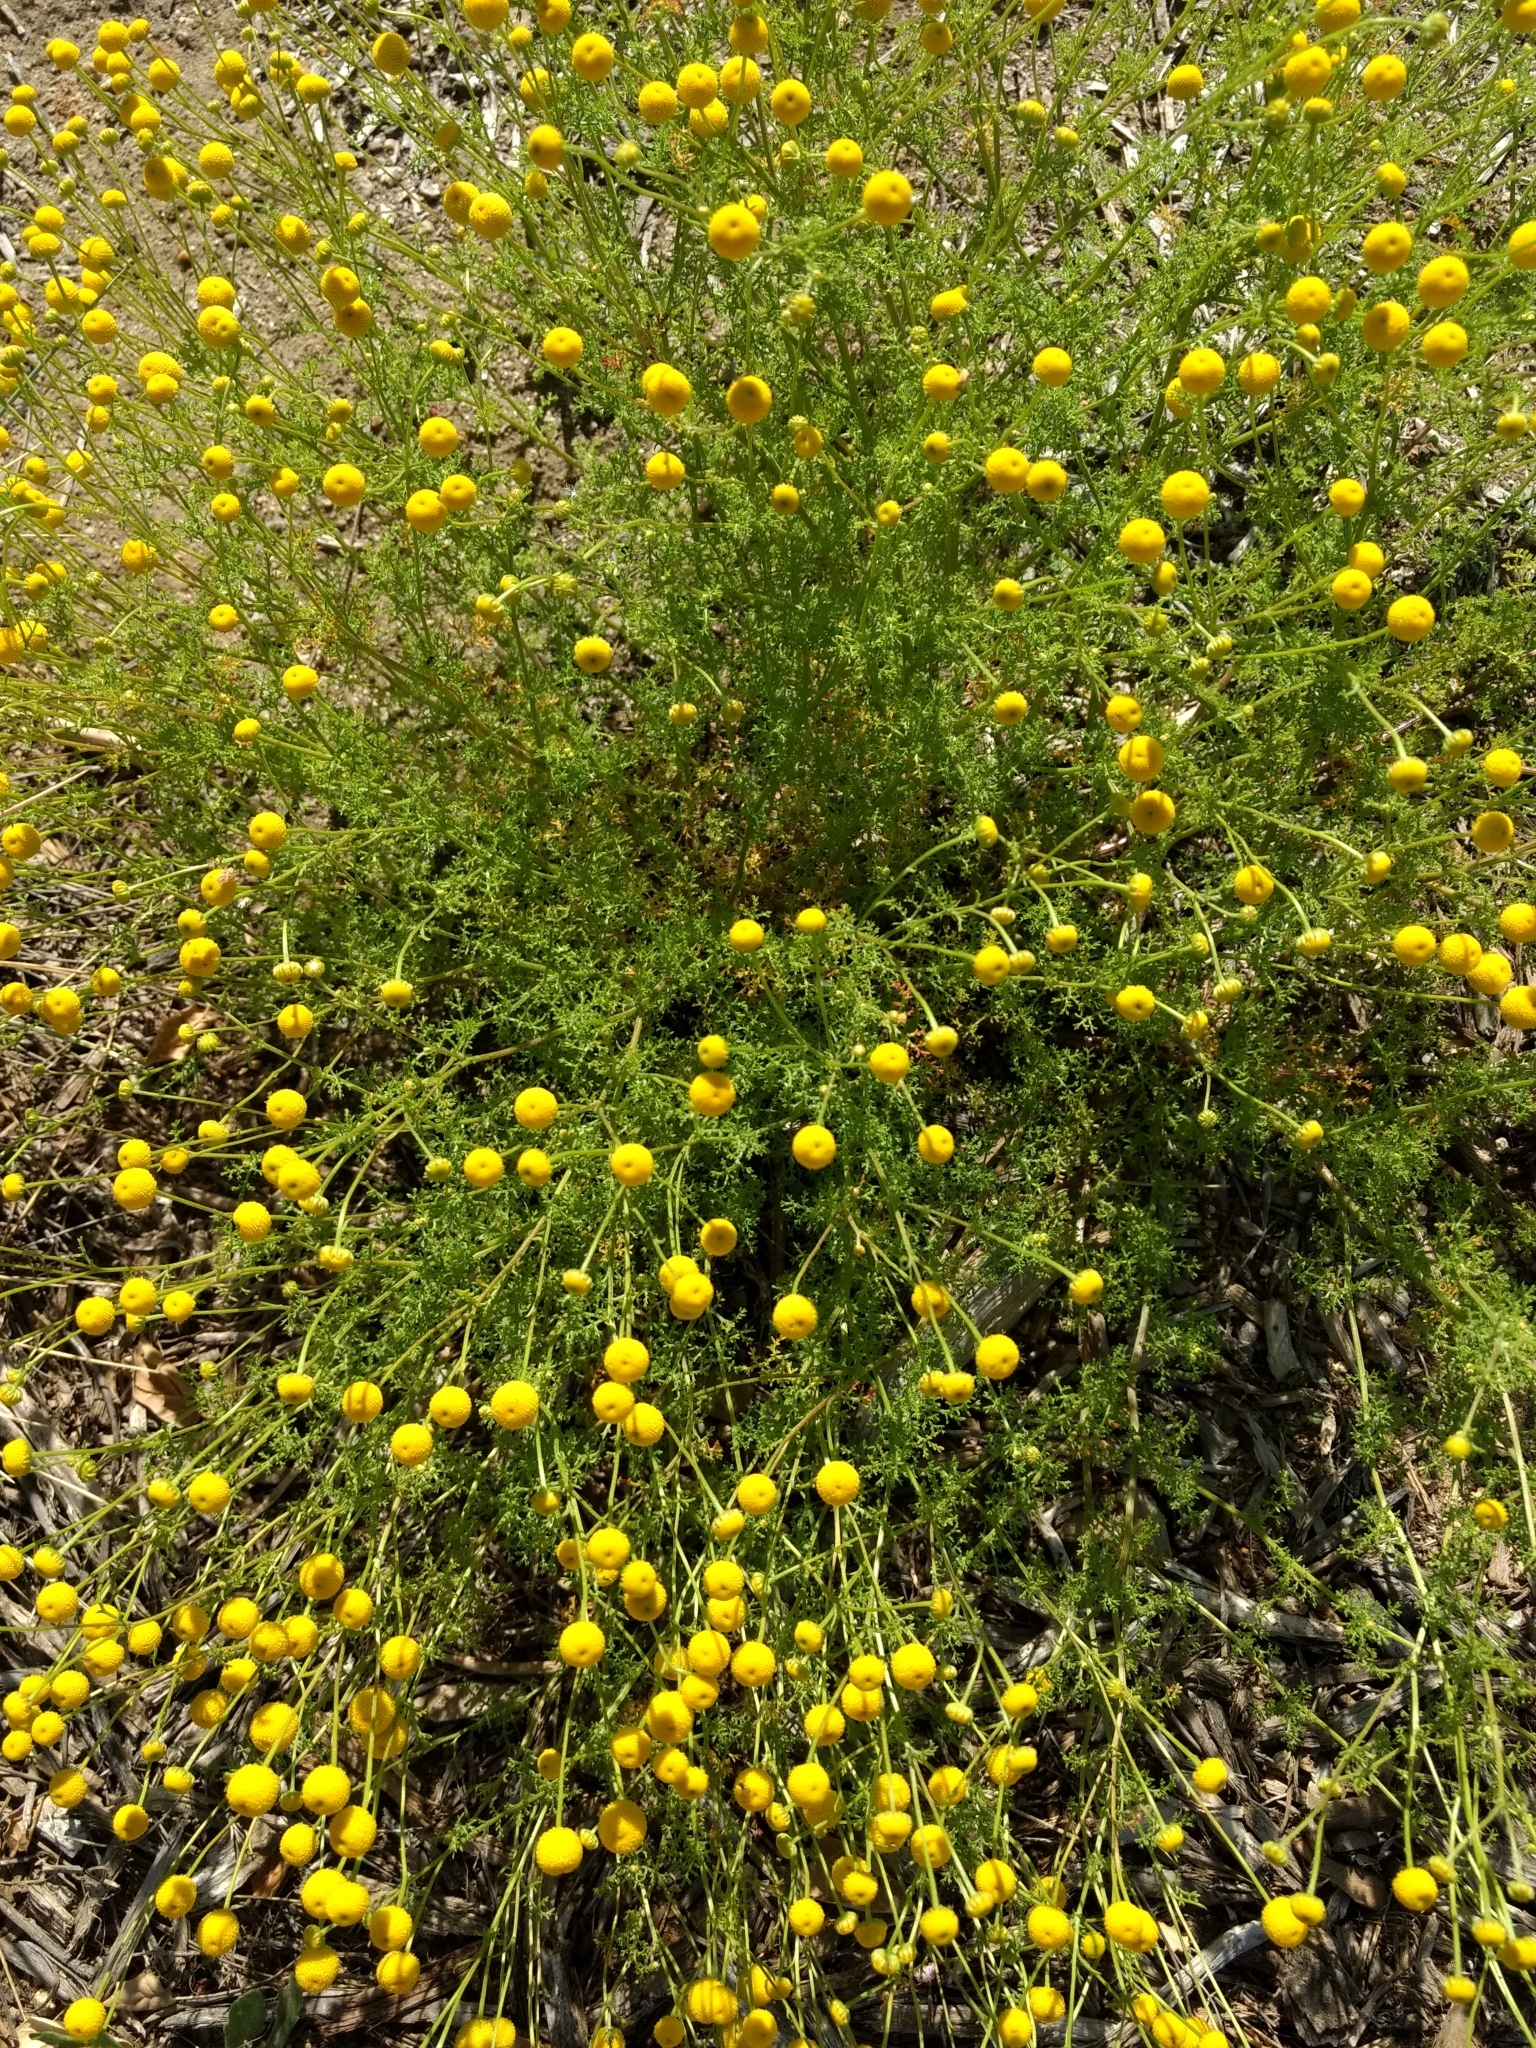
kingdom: Plantae
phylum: Tracheophyta
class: Magnoliopsida
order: Asterales
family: Asteraceae
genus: Oncosiphon
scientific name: Oncosiphon pilulifer
